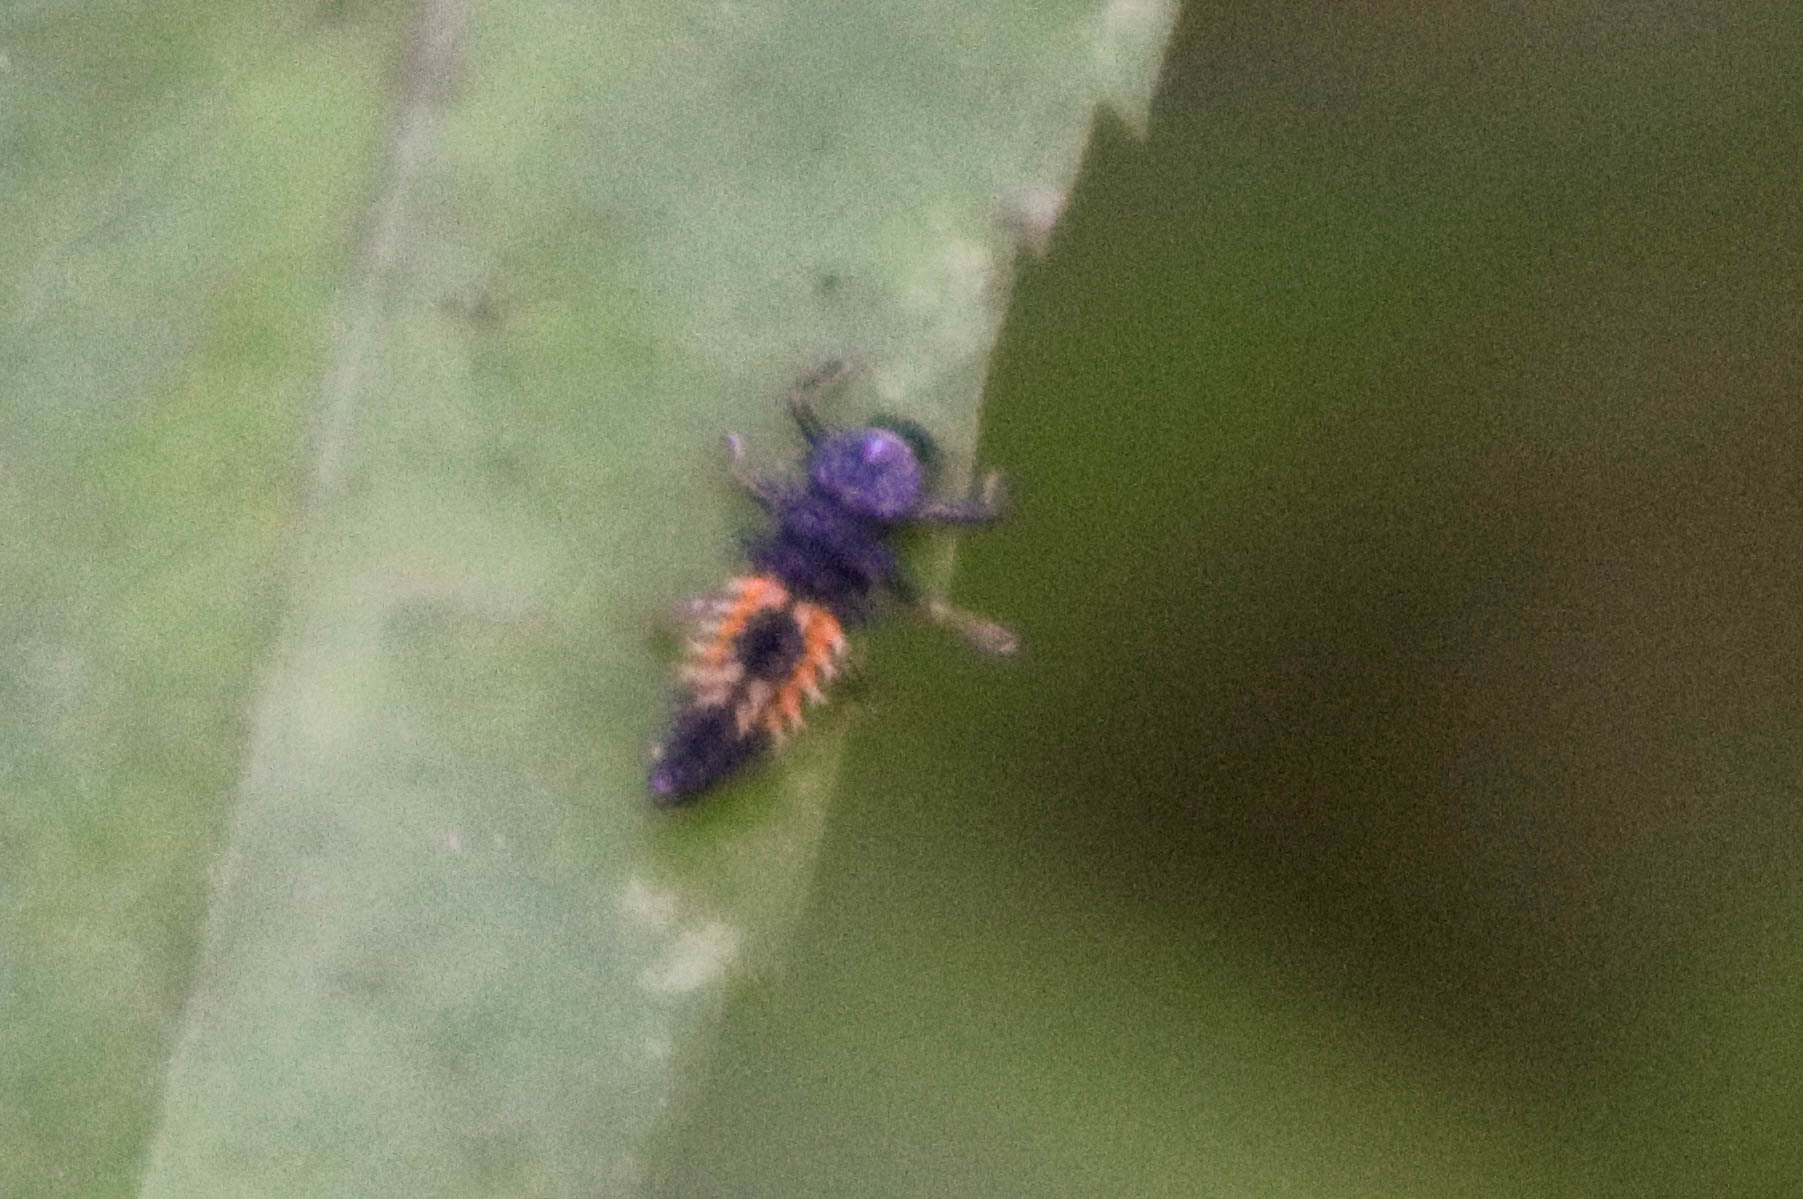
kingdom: Animalia
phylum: Arthropoda
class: Insecta
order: Coleoptera
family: Coccinellidae
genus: Harmonia
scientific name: Harmonia axyridis
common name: Harlequin ladybird
